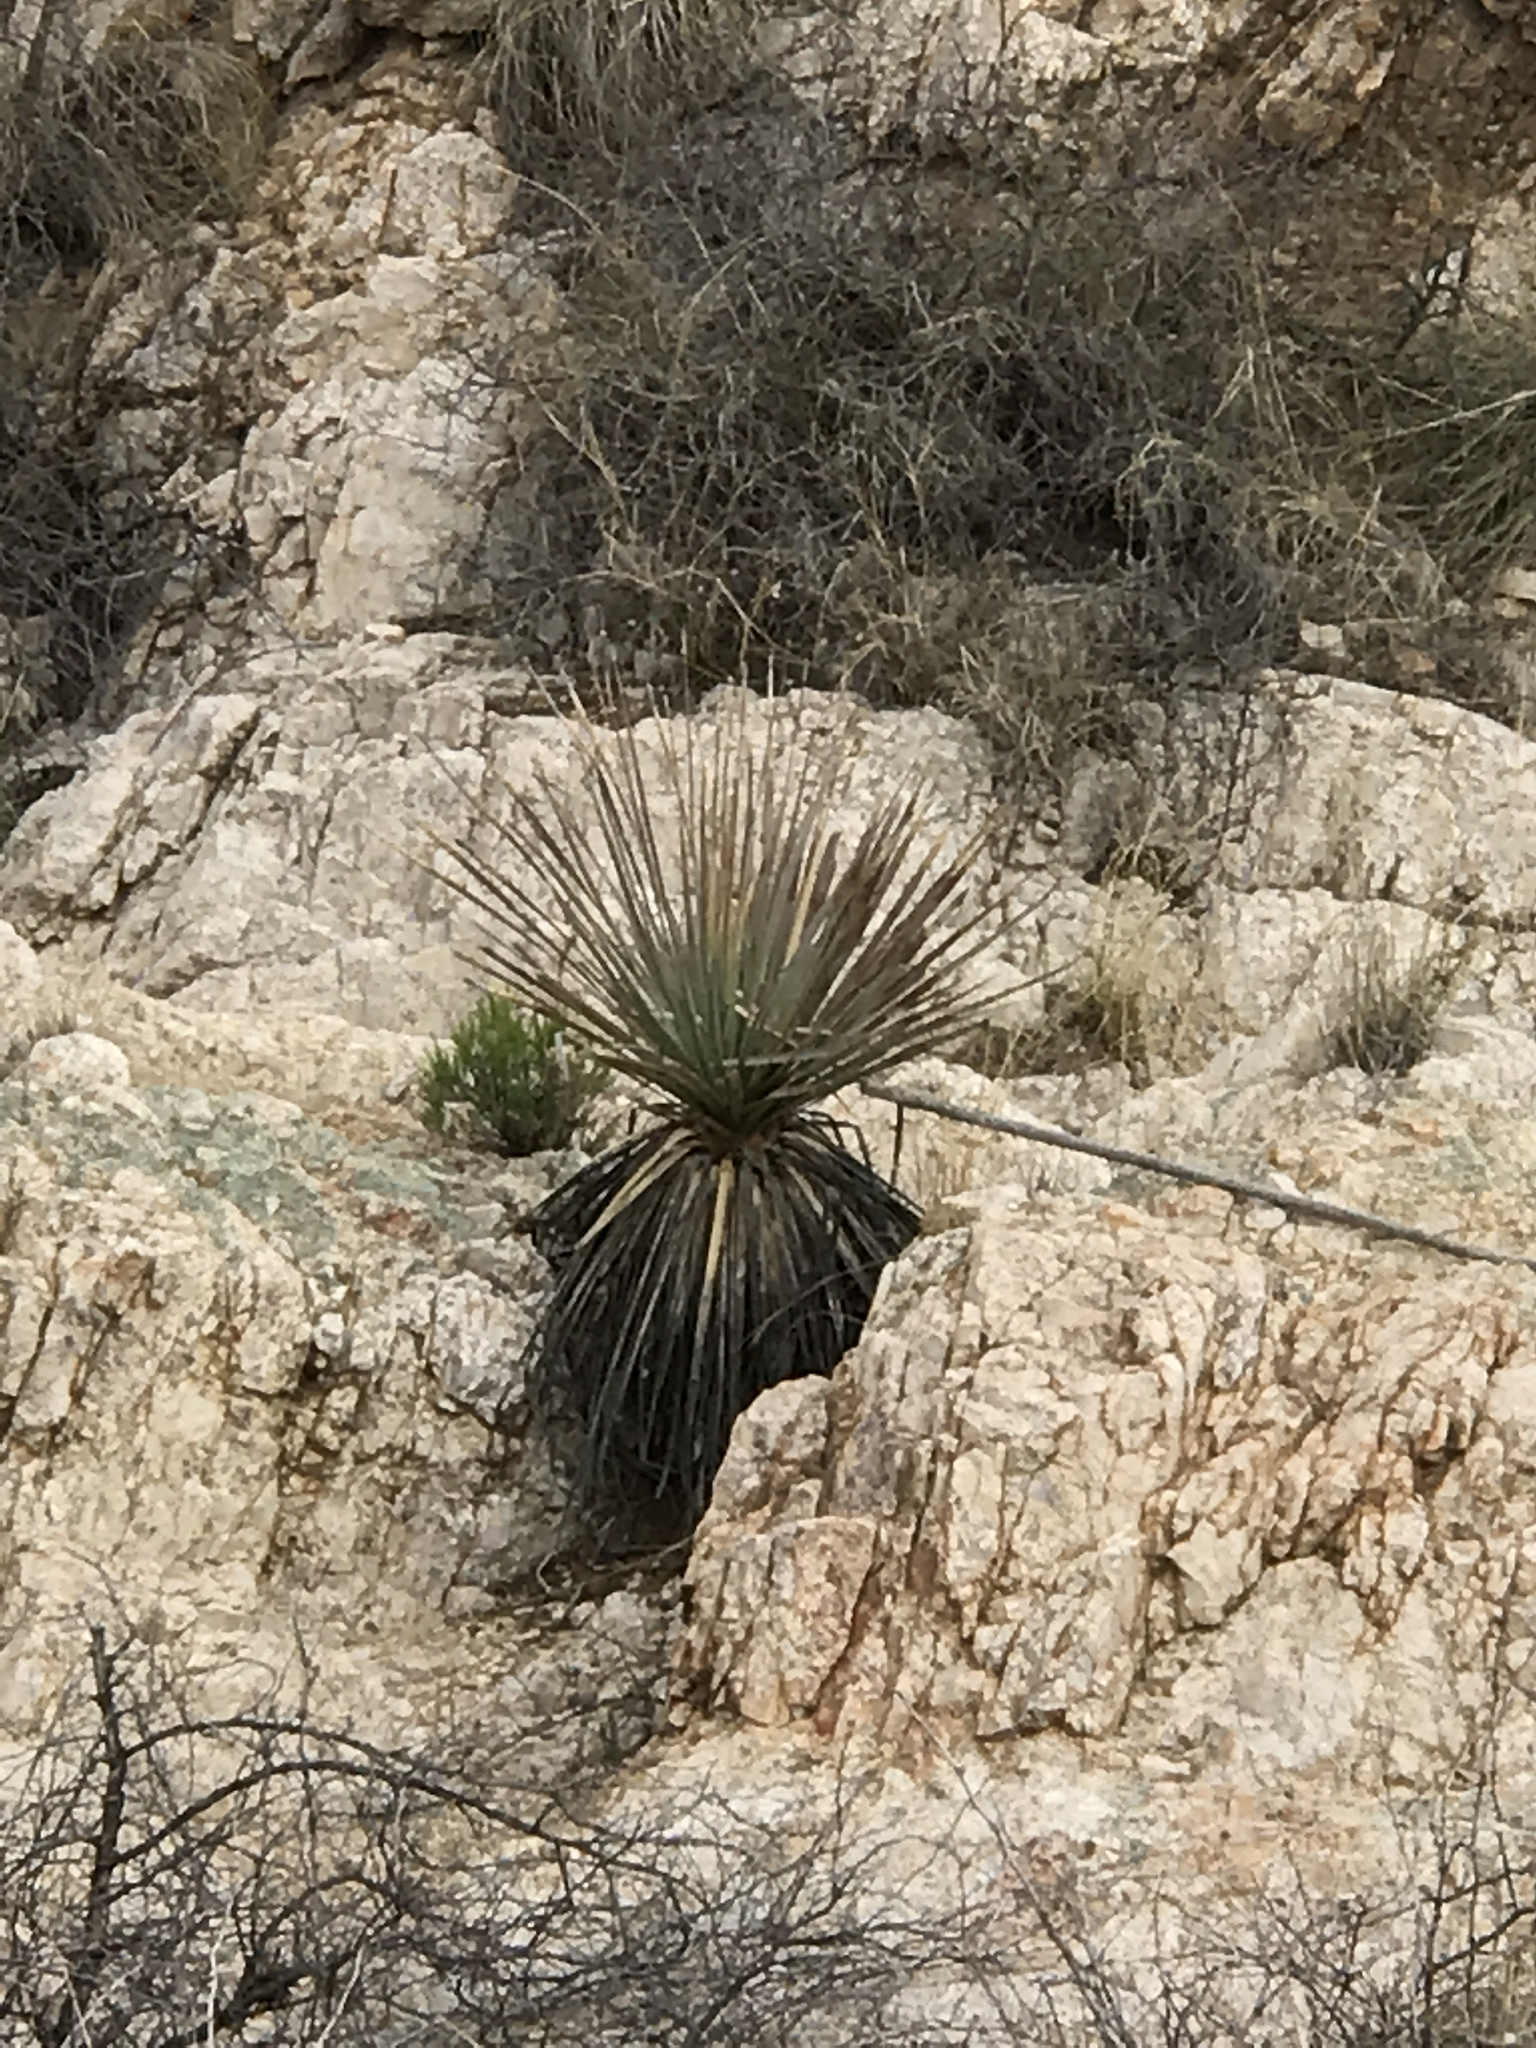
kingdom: Plantae
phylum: Tracheophyta
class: Liliopsida
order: Asparagales
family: Asparagaceae
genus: Yucca
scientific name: Yucca elata
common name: Palmella
